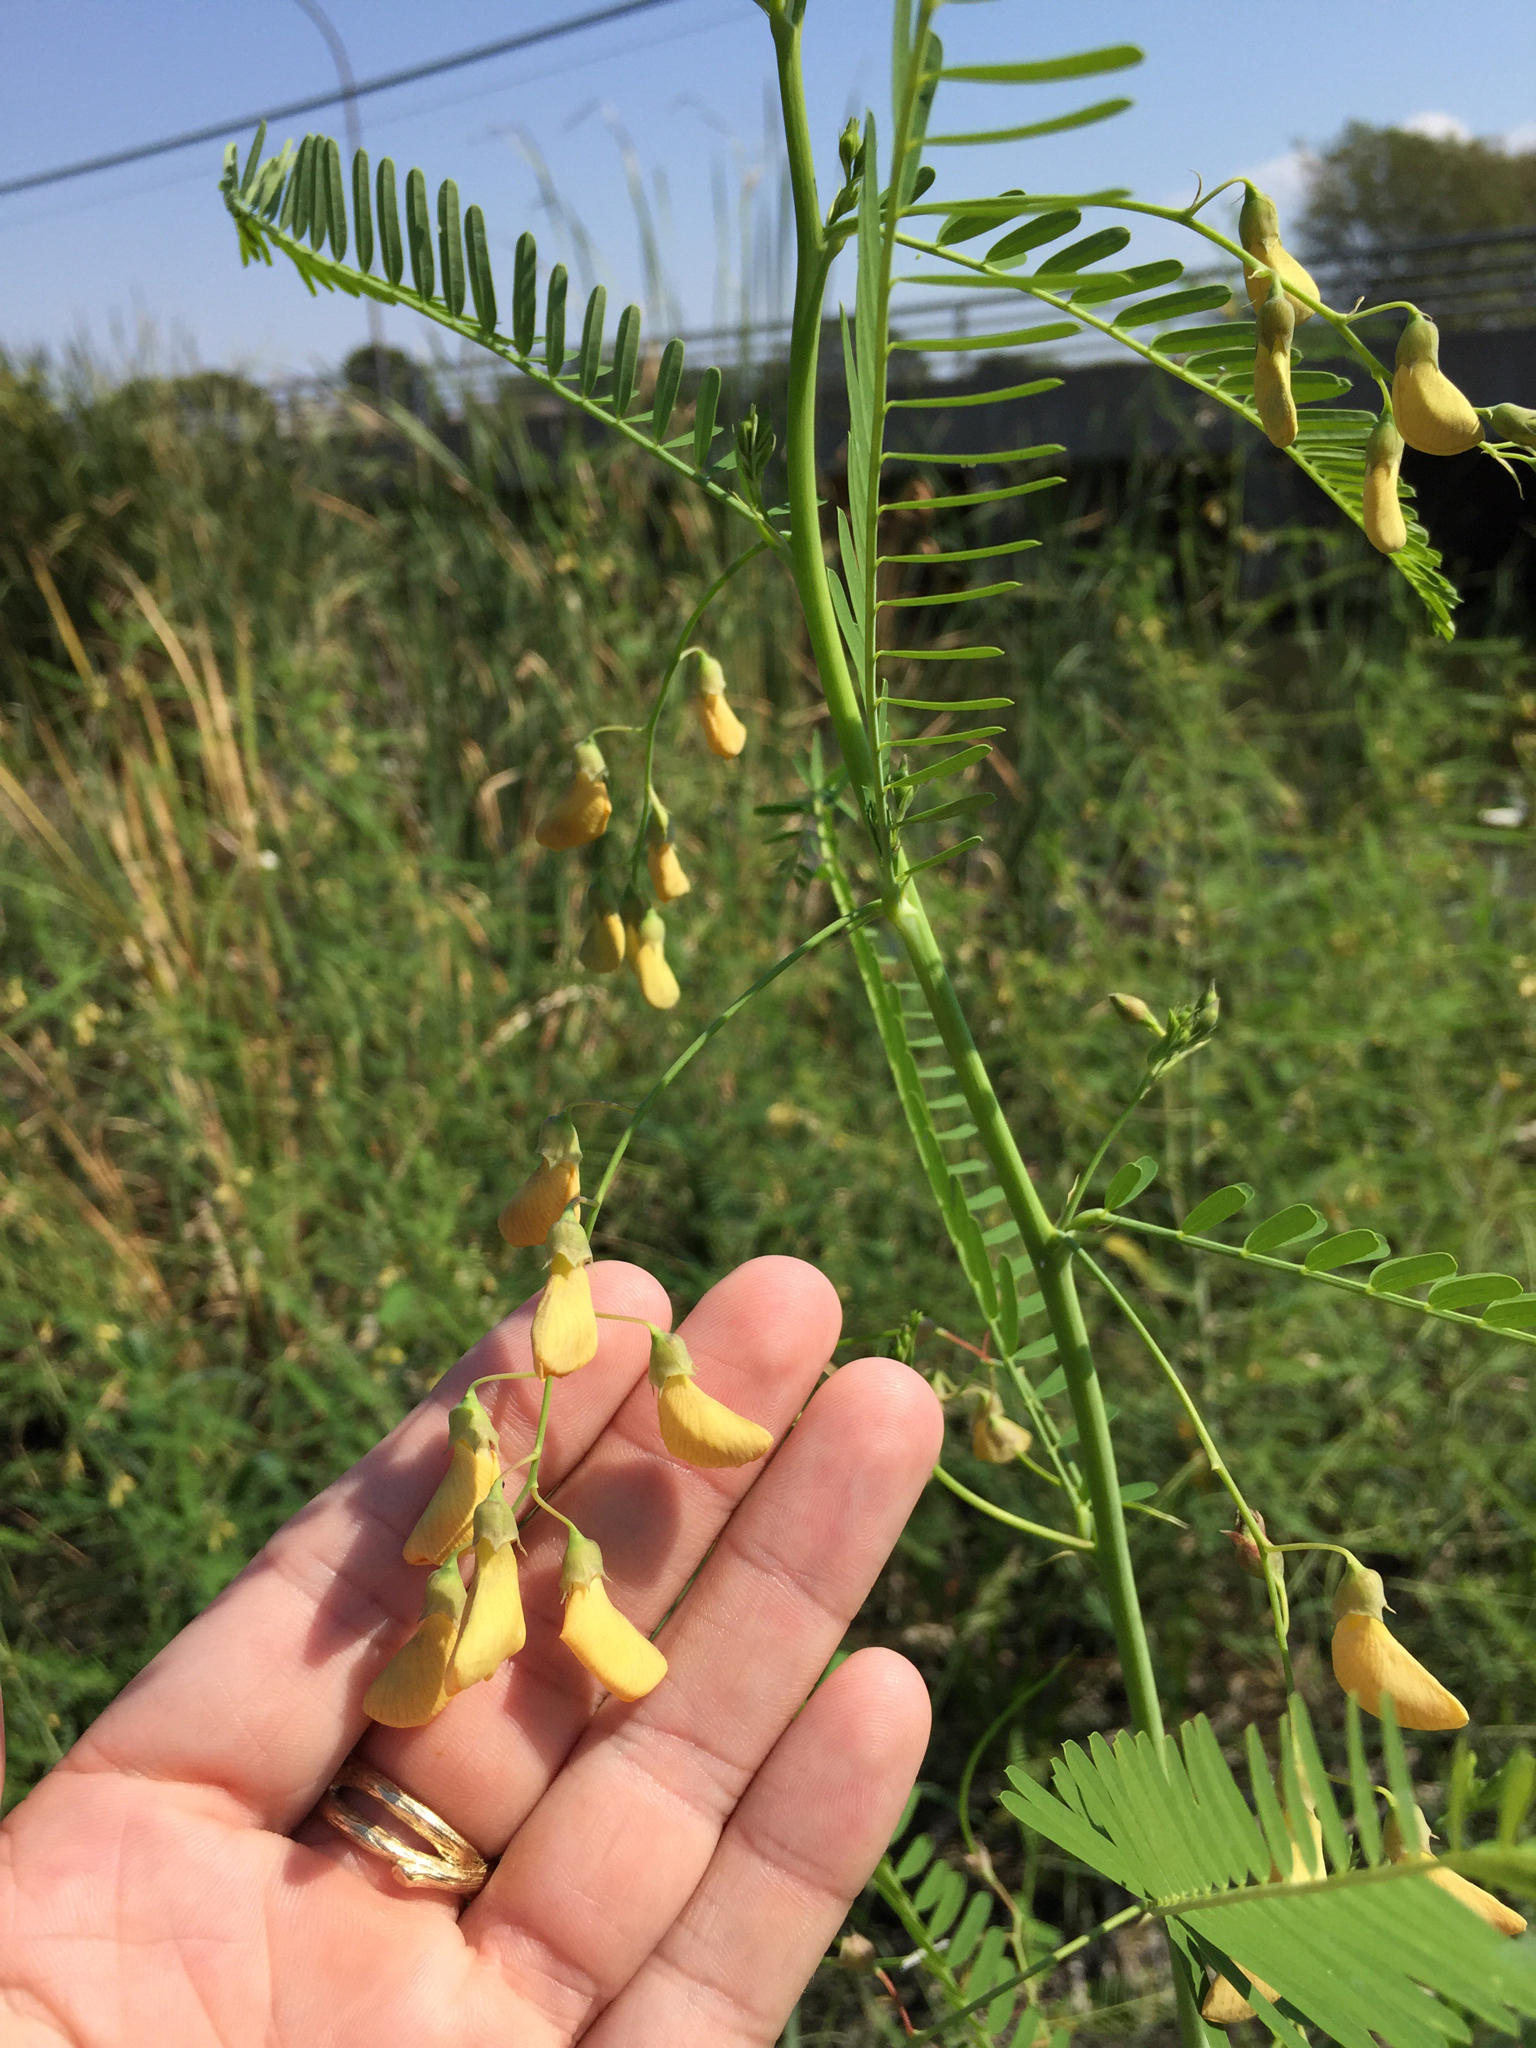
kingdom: Plantae
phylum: Tracheophyta
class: Magnoliopsida
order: Fabales
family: Fabaceae
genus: Sesbania
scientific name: Sesbania herbacea
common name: Bigpod sesbania
